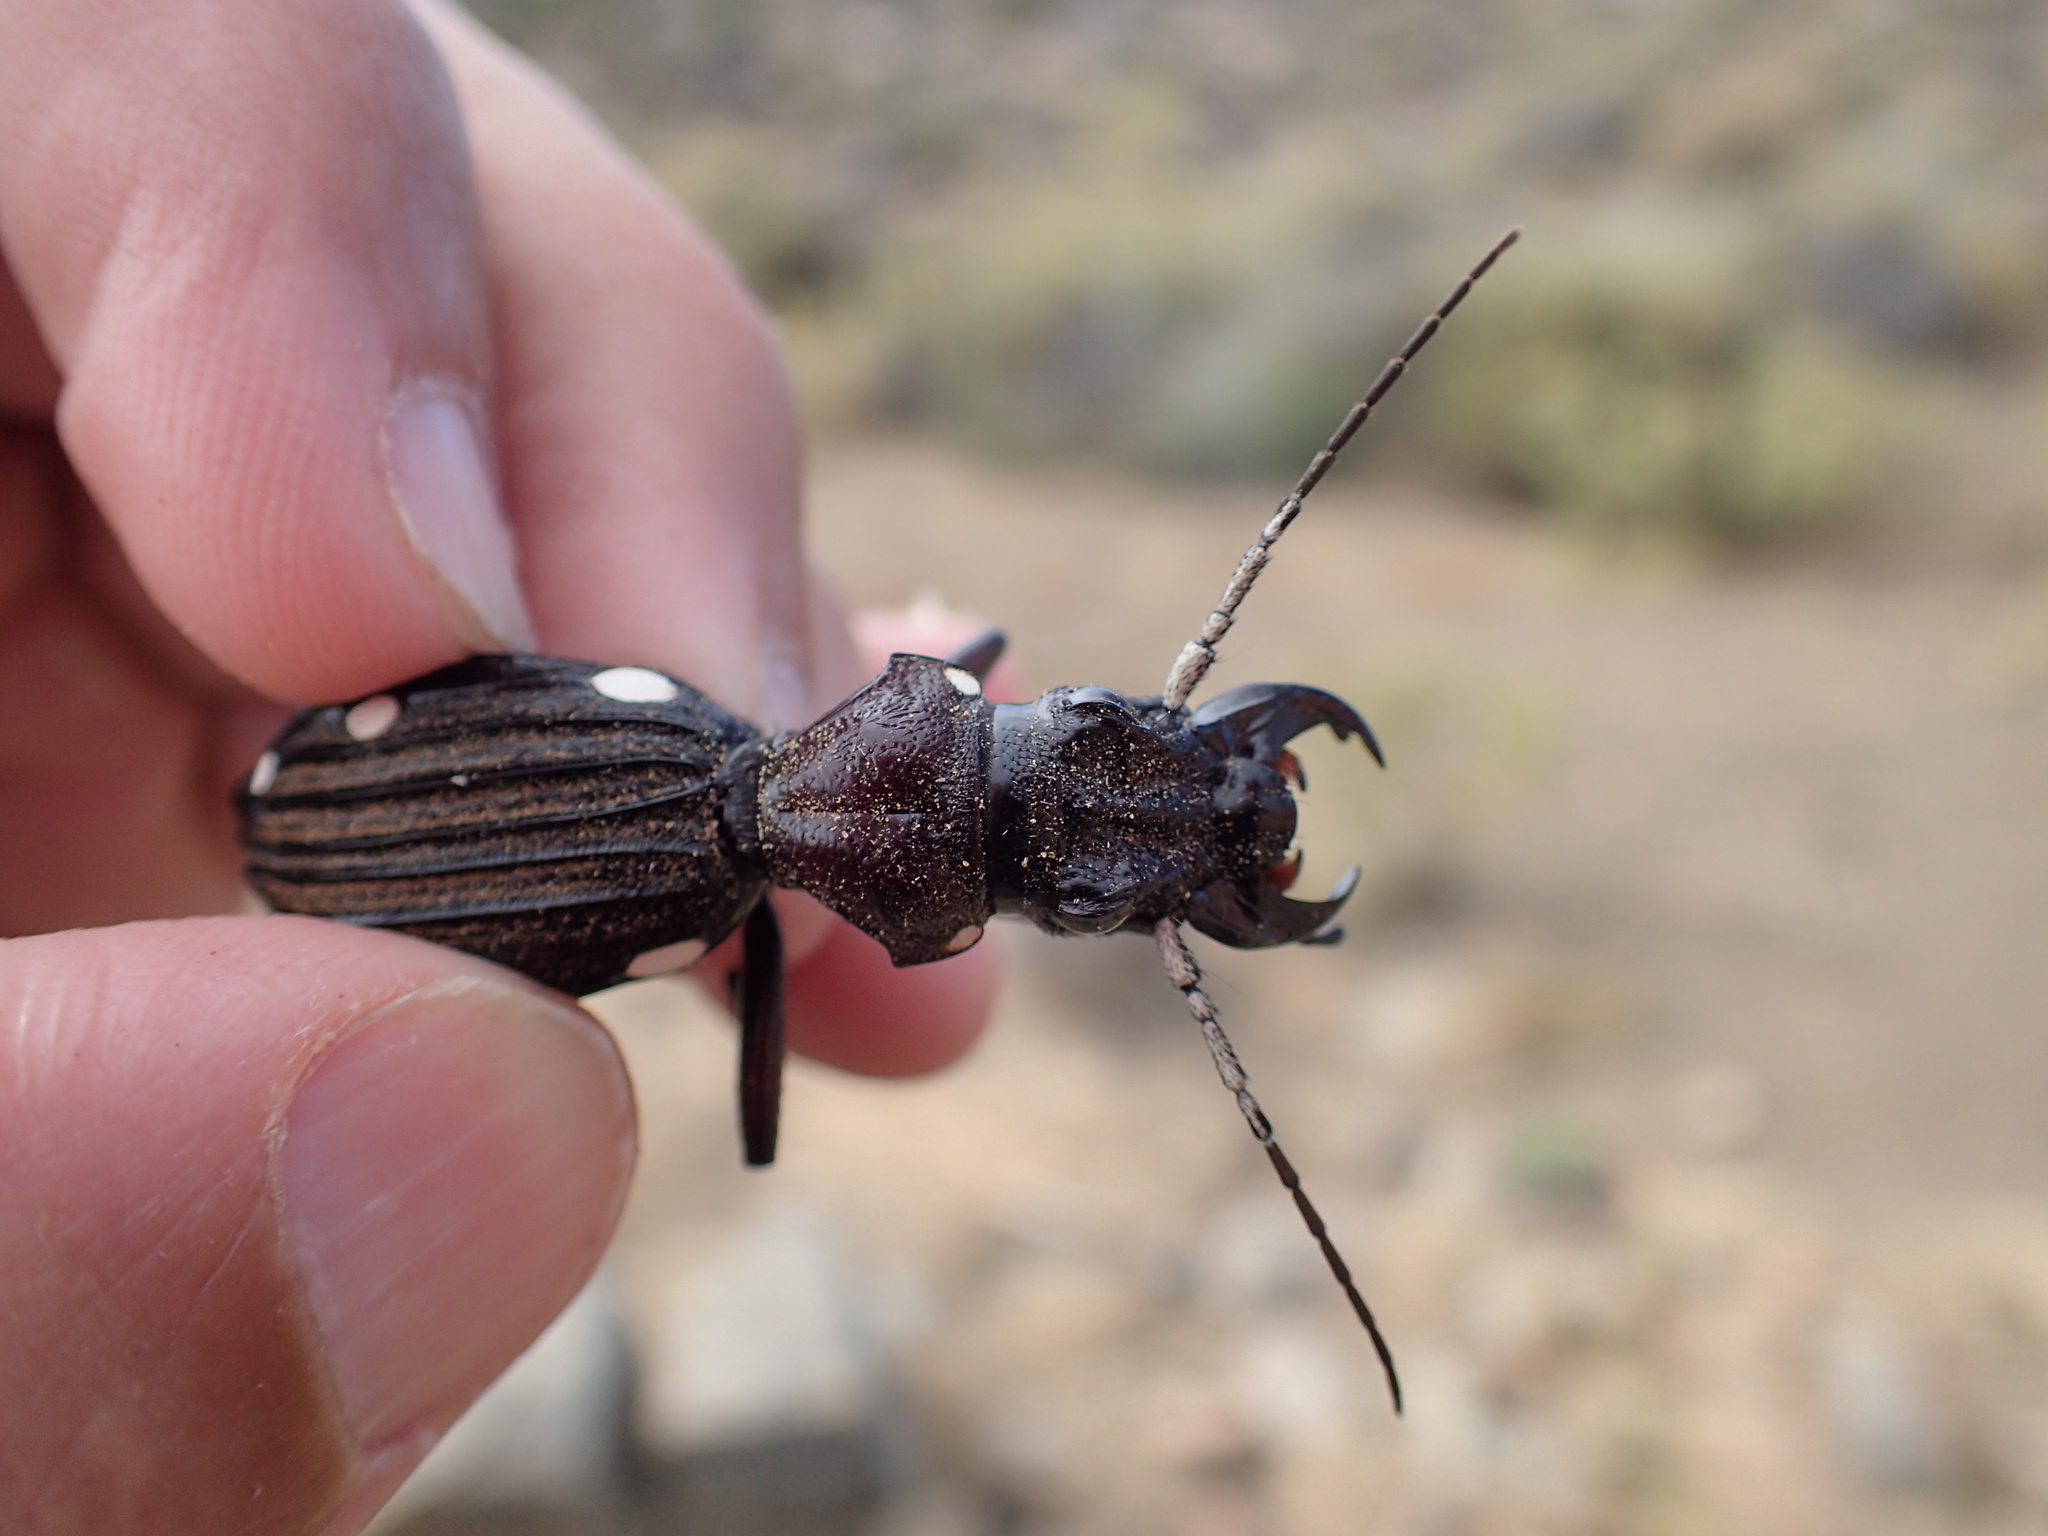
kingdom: Animalia
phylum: Arthropoda
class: Insecta
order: Coleoptera
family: Carabidae
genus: Anthia
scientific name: Anthia decemguttata
